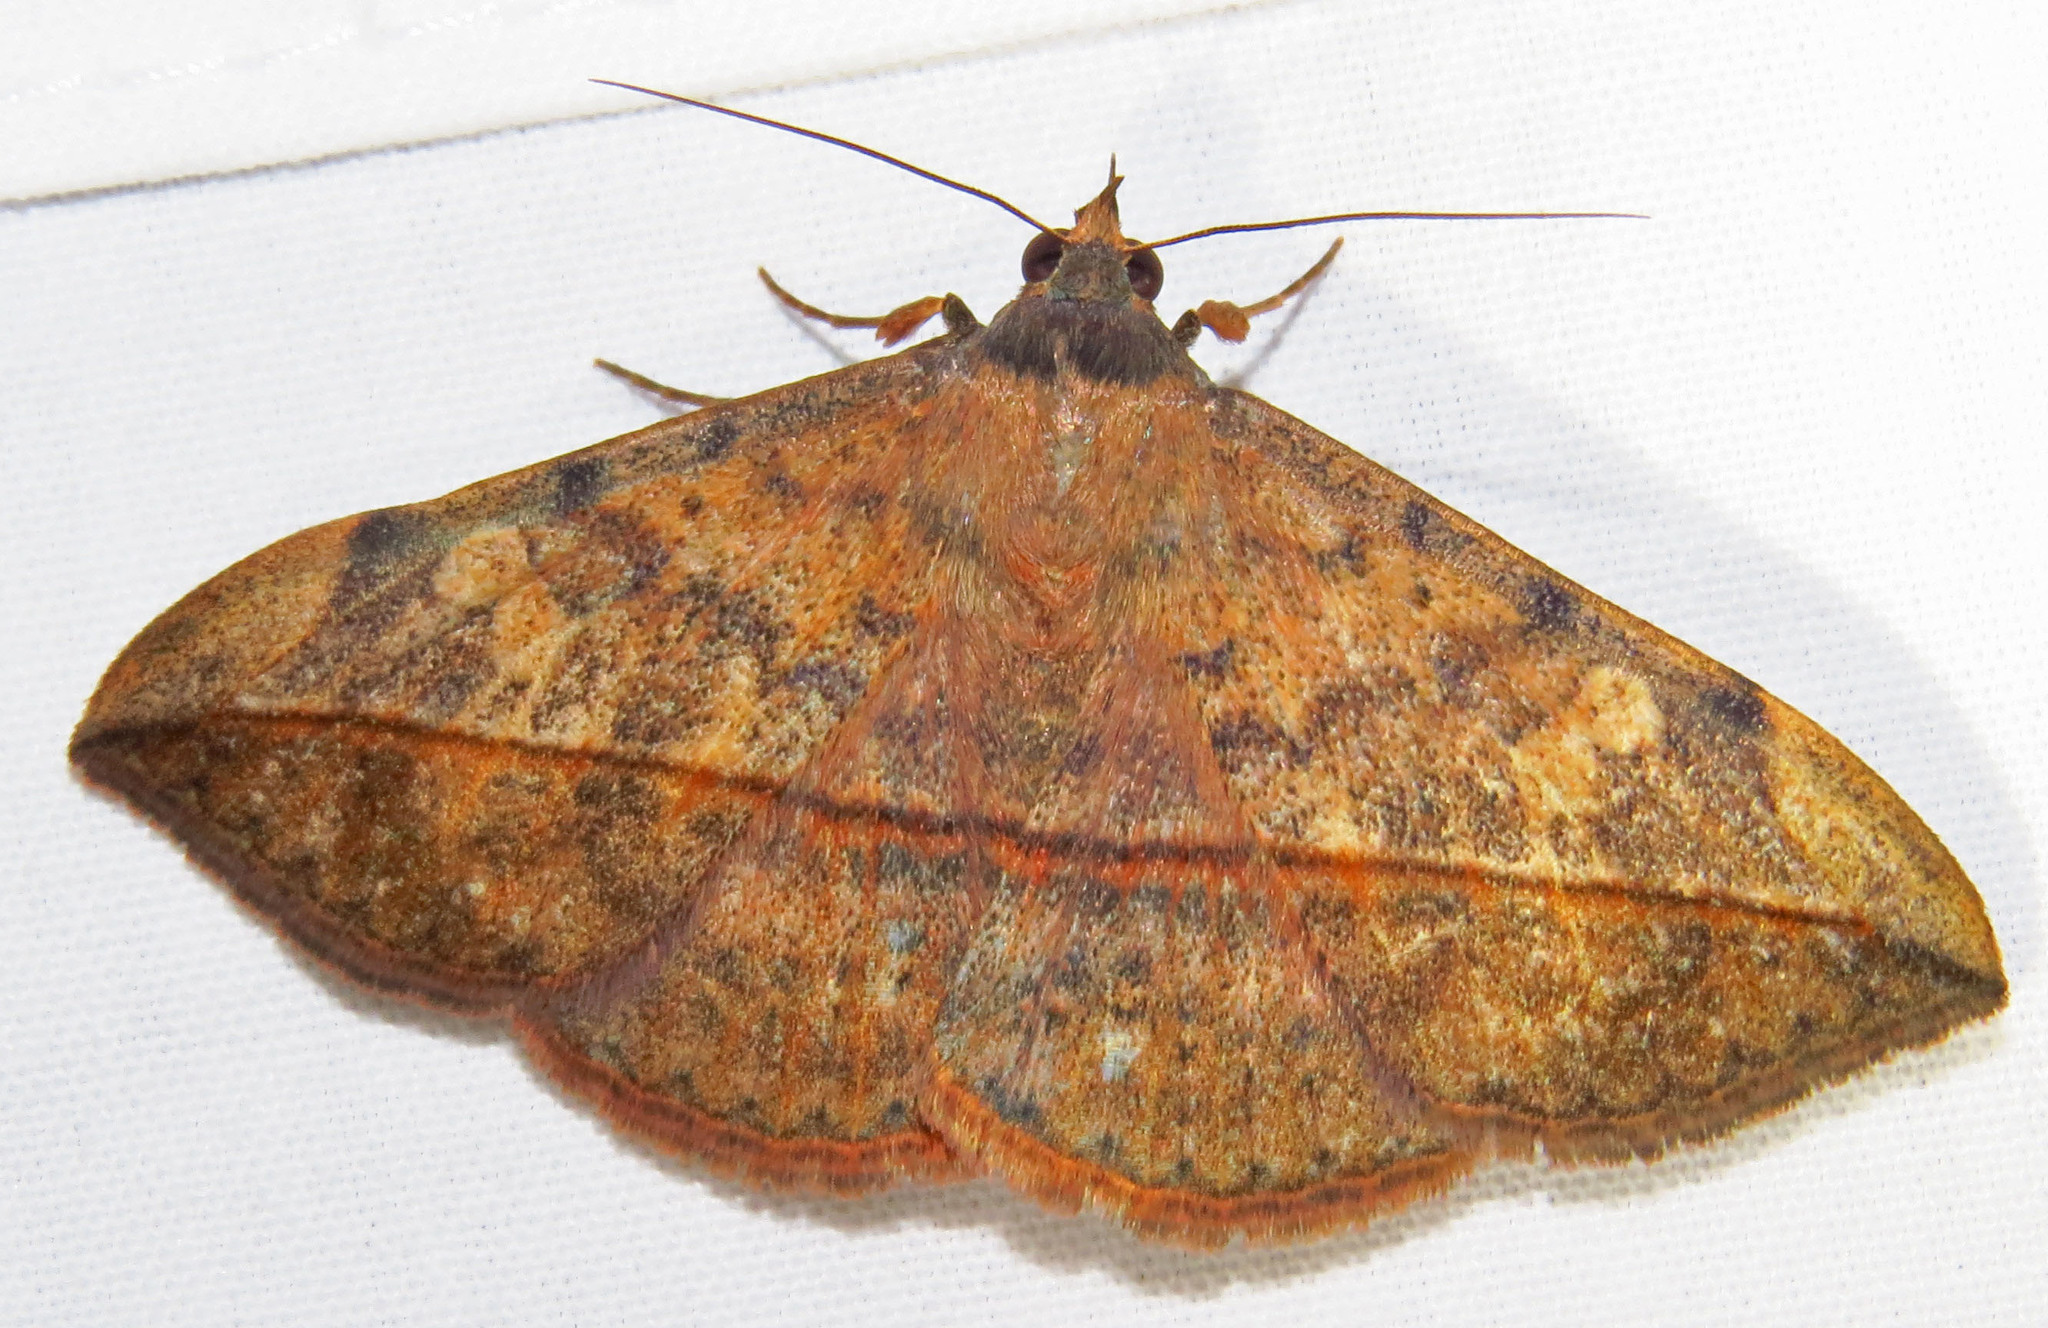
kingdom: Animalia
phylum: Arthropoda
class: Insecta
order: Lepidoptera
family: Erebidae
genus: Anticarsia
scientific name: Anticarsia gemmatalis
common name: Cutworm moth
